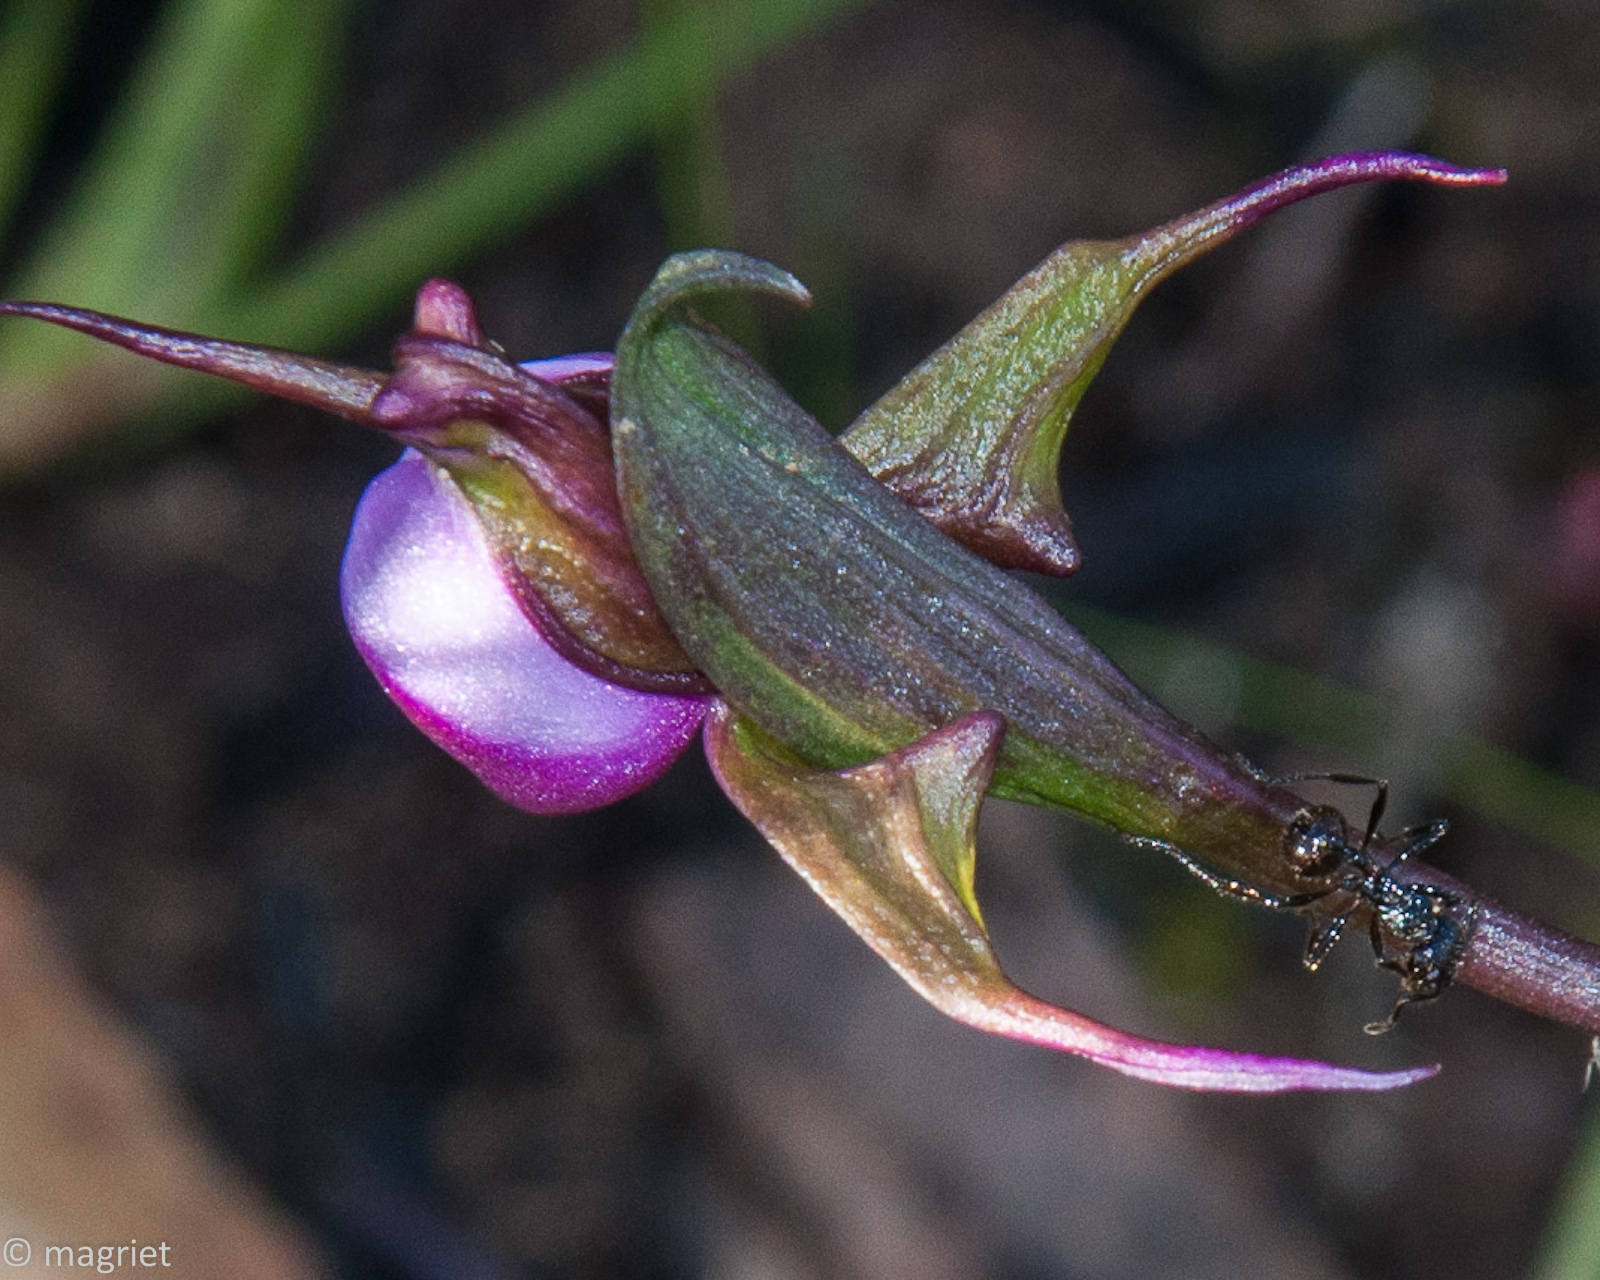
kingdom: Animalia
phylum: Arthropoda
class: Insecta
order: Hymenoptera
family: Formicidae
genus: Myrmicaria
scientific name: Myrmicaria nigra
